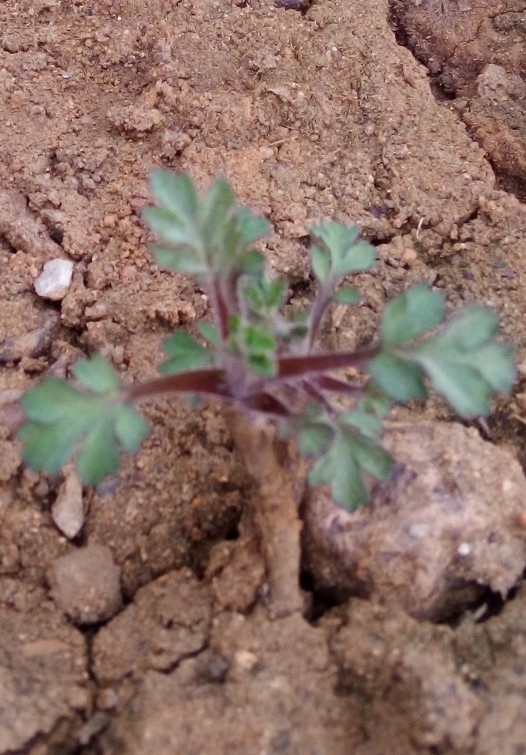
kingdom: Plantae
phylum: Tracheophyta
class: Magnoliopsida
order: Asterales
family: Asteraceae
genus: Artemisia
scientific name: Artemisia vulgaris
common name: Mugwort
